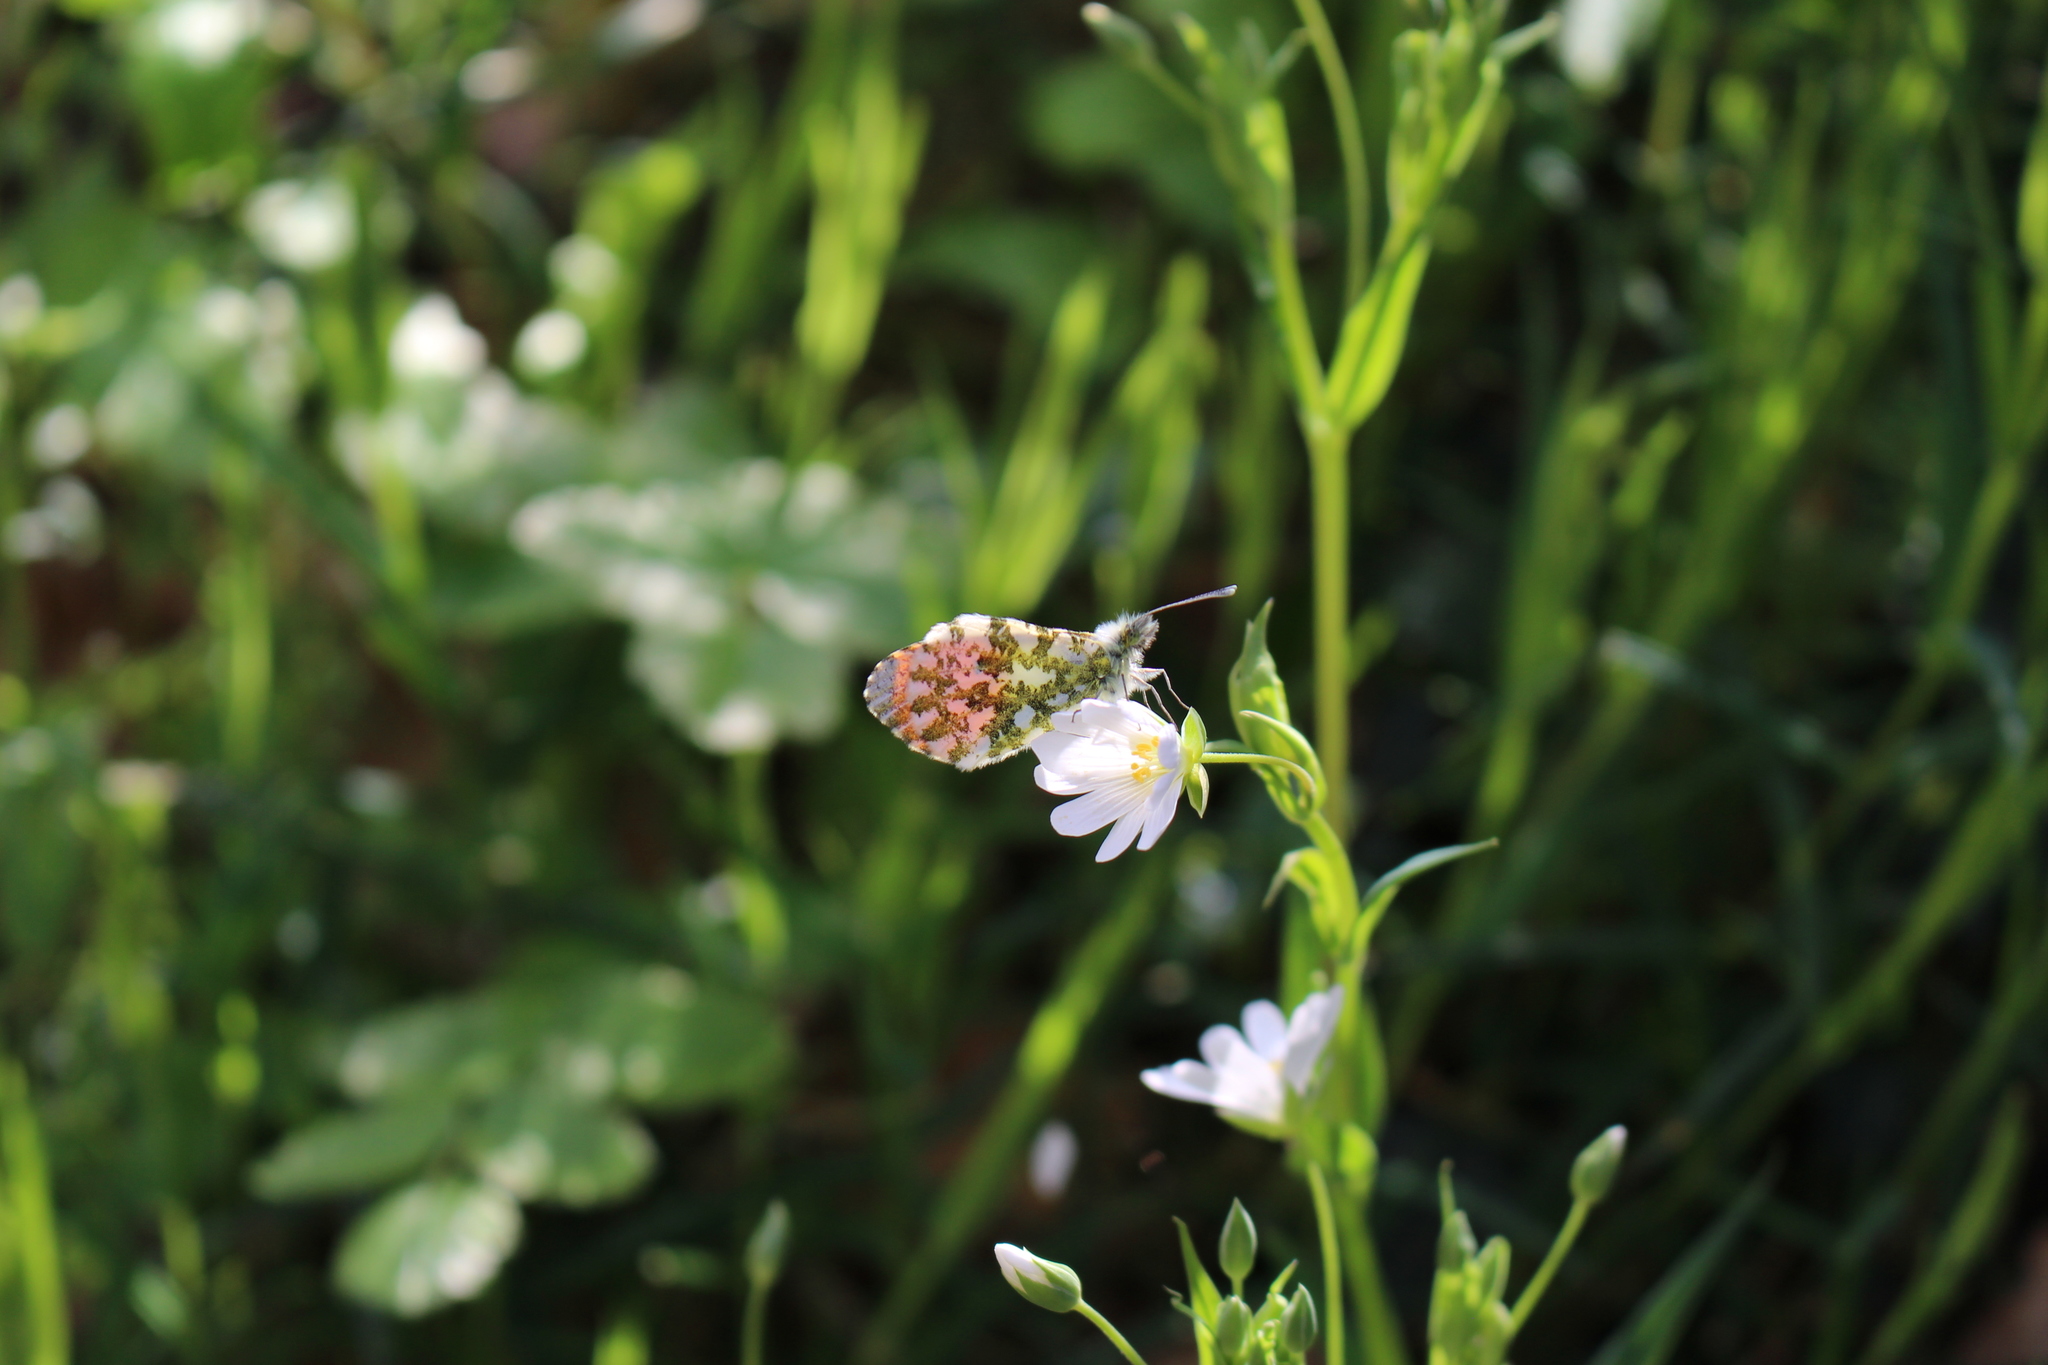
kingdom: Animalia
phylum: Arthropoda
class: Insecta
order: Lepidoptera
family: Pieridae
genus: Anthocharis
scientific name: Anthocharis cardamines
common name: Orange-tip
